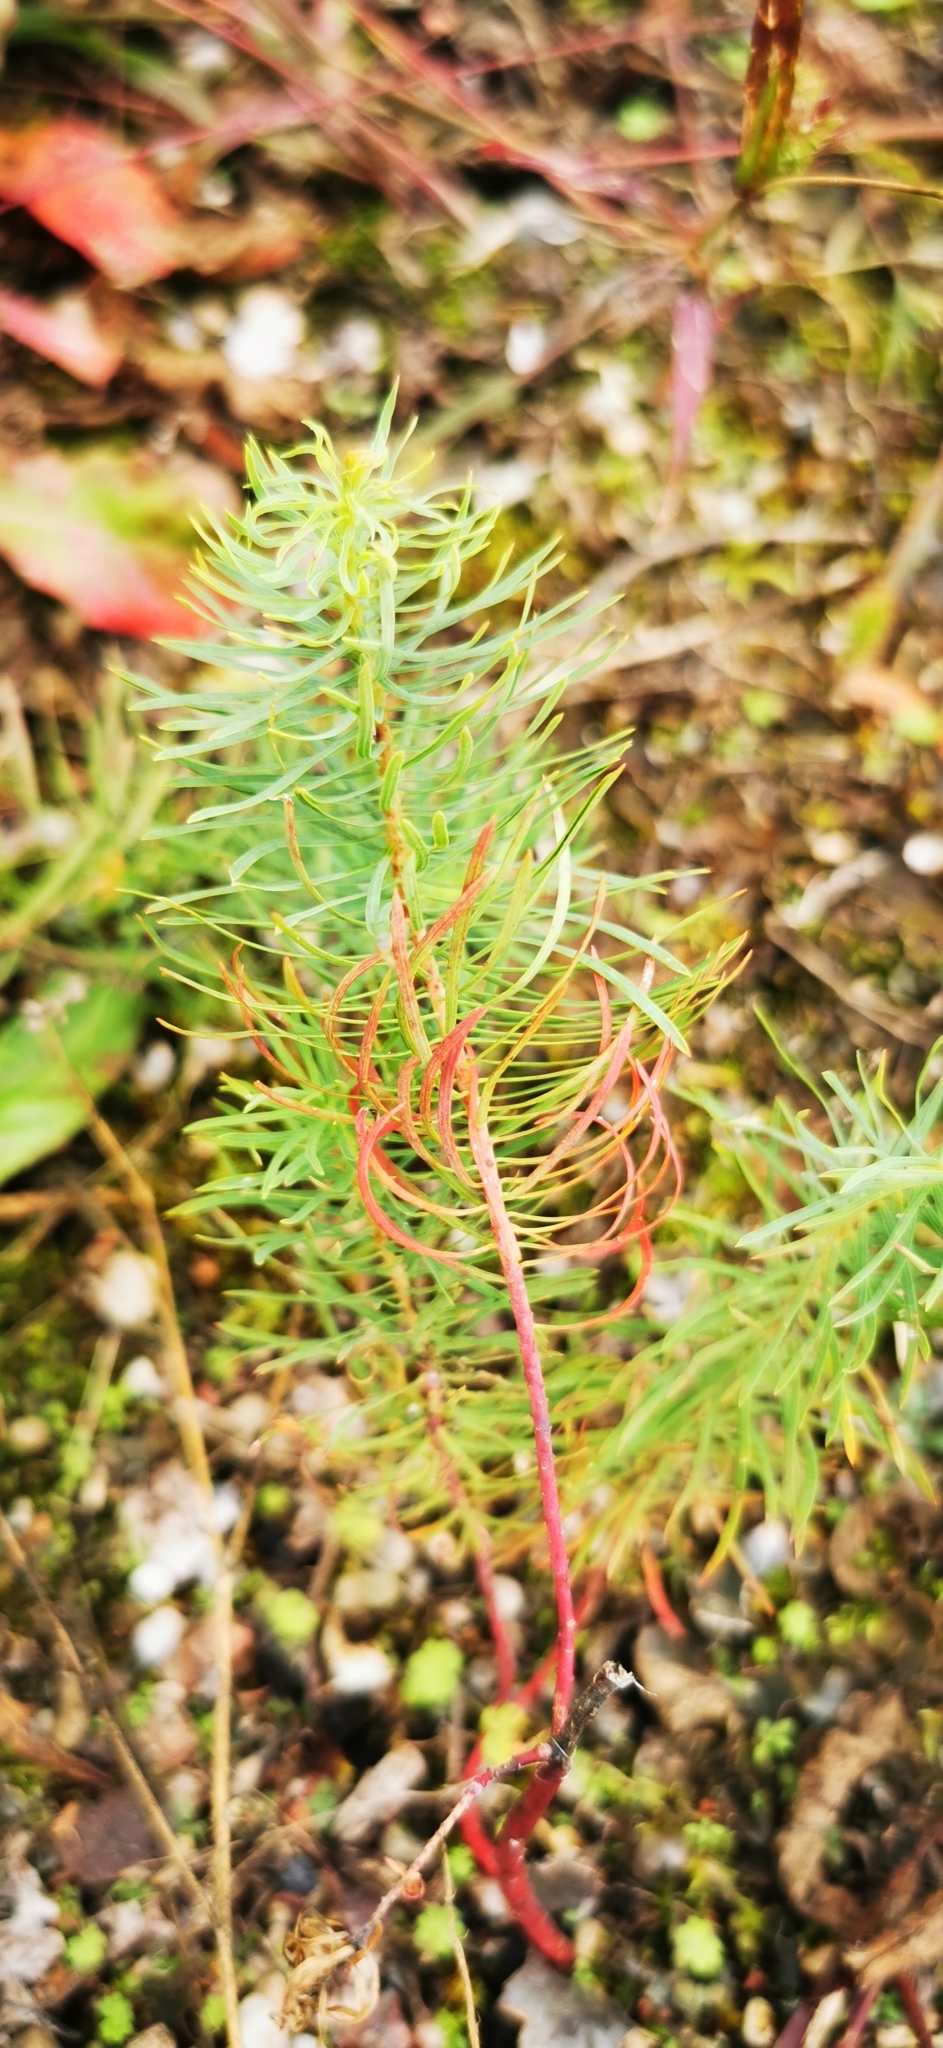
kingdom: Plantae
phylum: Tracheophyta
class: Magnoliopsida
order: Malpighiales
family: Euphorbiaceae
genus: Euphorbia
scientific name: Euphorbia cyparissias
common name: Cypress spurge
